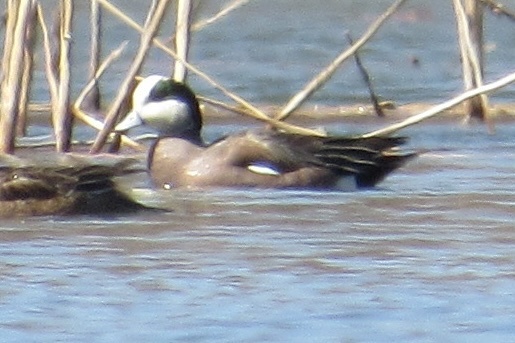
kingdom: Animalia
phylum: Chordata
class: Aves
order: Anseriformes
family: Anatidae
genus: Mareca
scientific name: Mareca americana
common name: American wigeon
